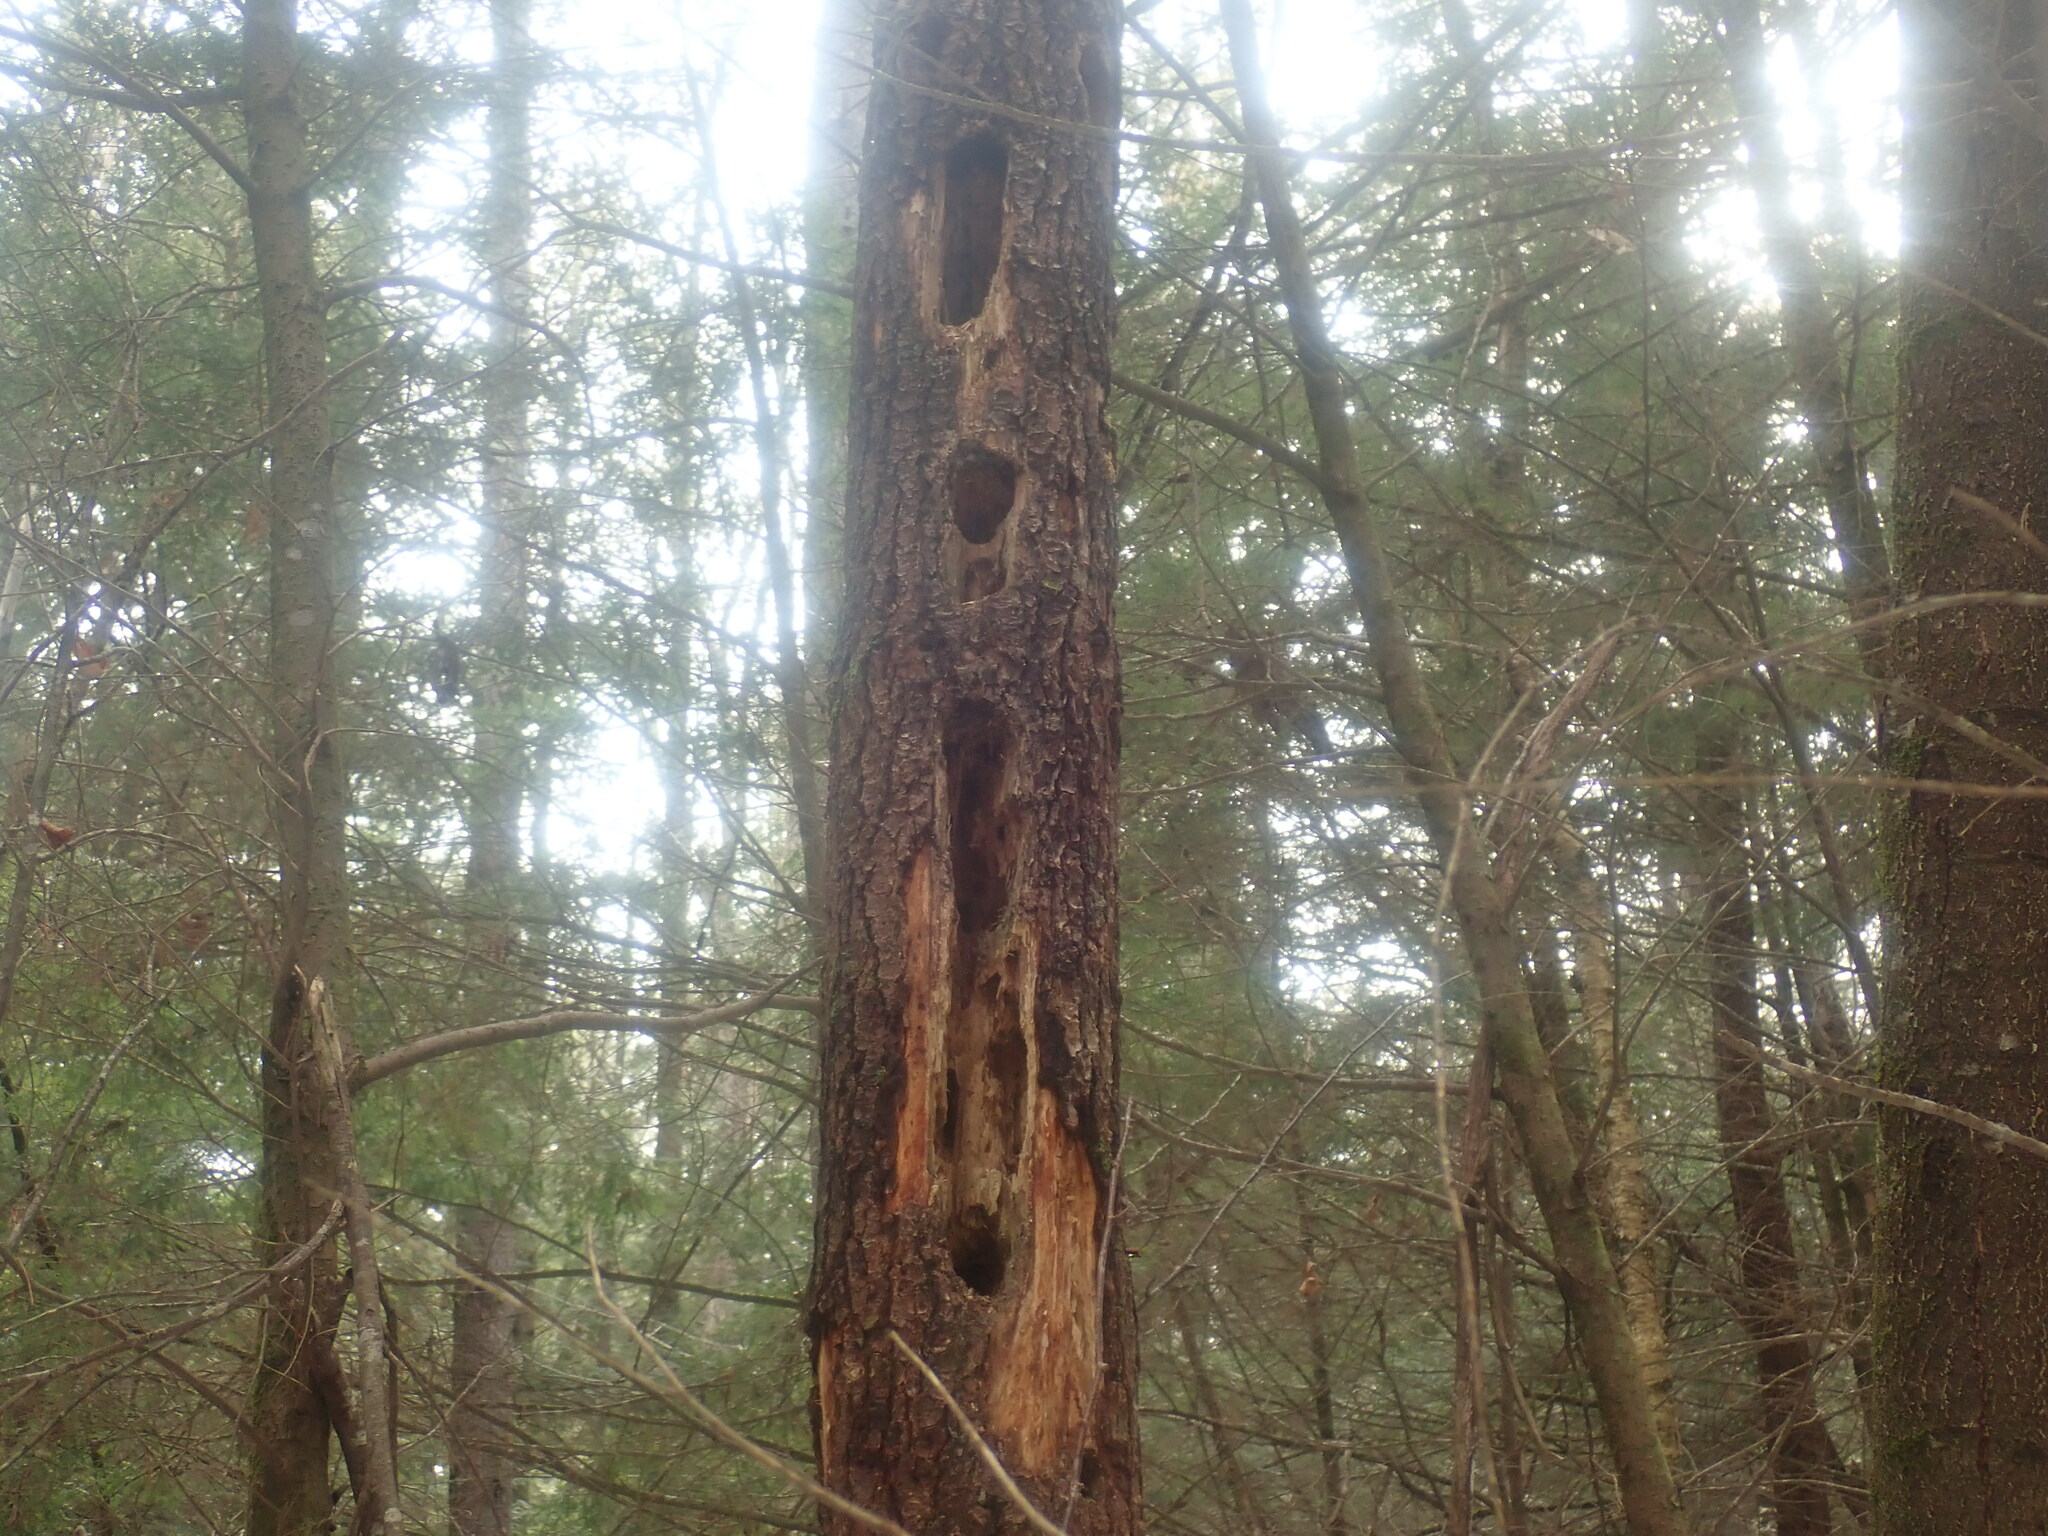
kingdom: Animalia
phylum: Chordata
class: Aves
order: Piciformes
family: Picidae
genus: Dryocopus
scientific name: Dryocopus pileatus
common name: Pileated woodpecker
